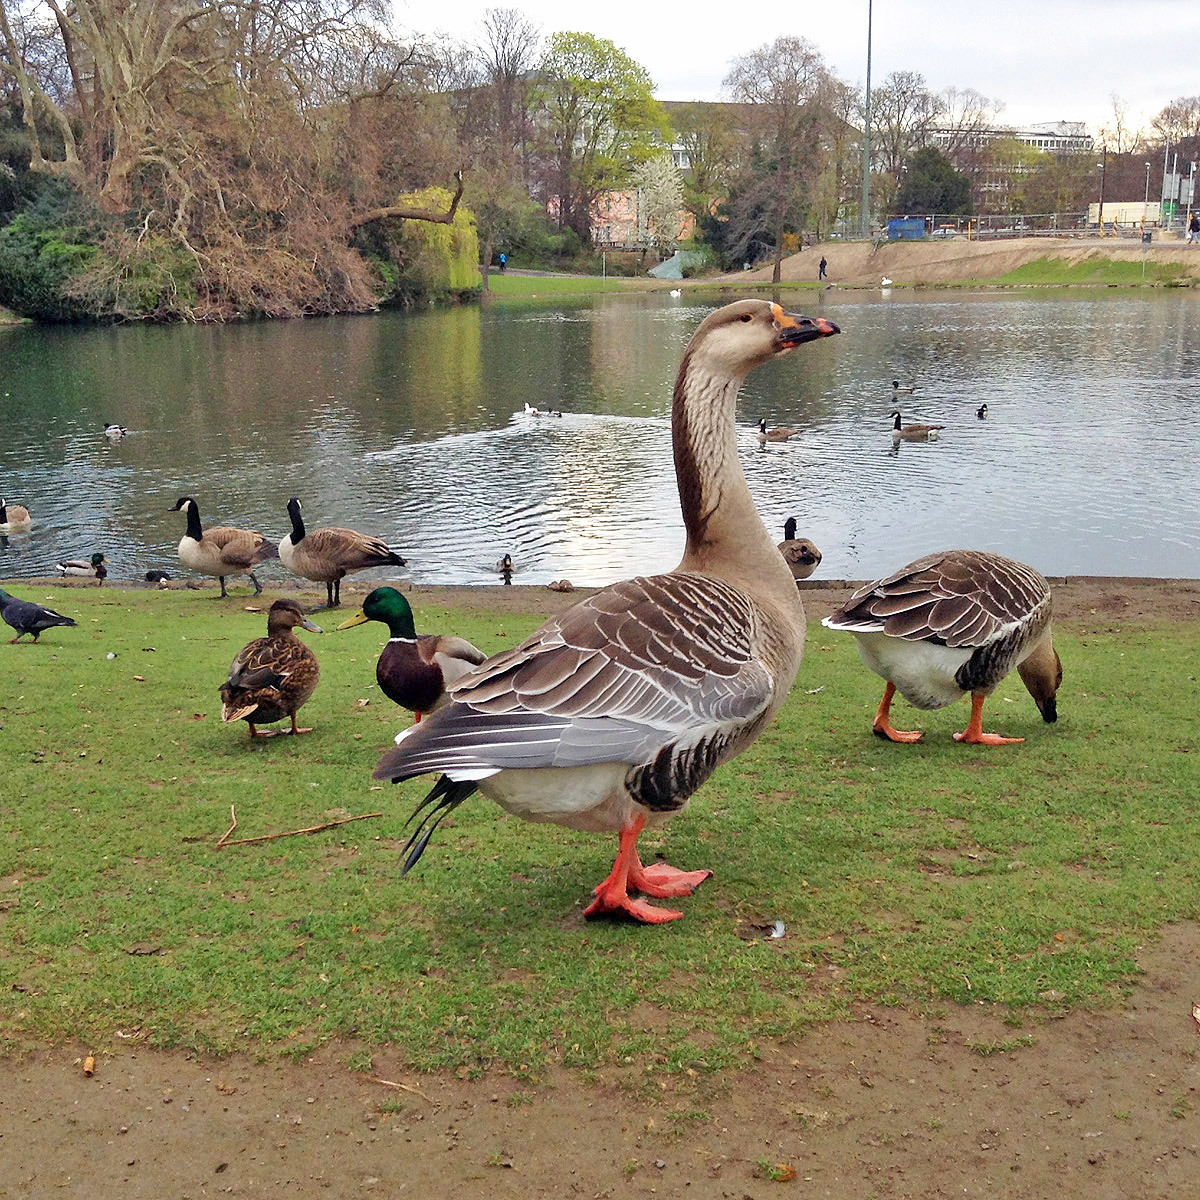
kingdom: Animalia
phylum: Chordata
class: Aves
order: Anseriformes
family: Anatidae
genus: Anser
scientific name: Anser
